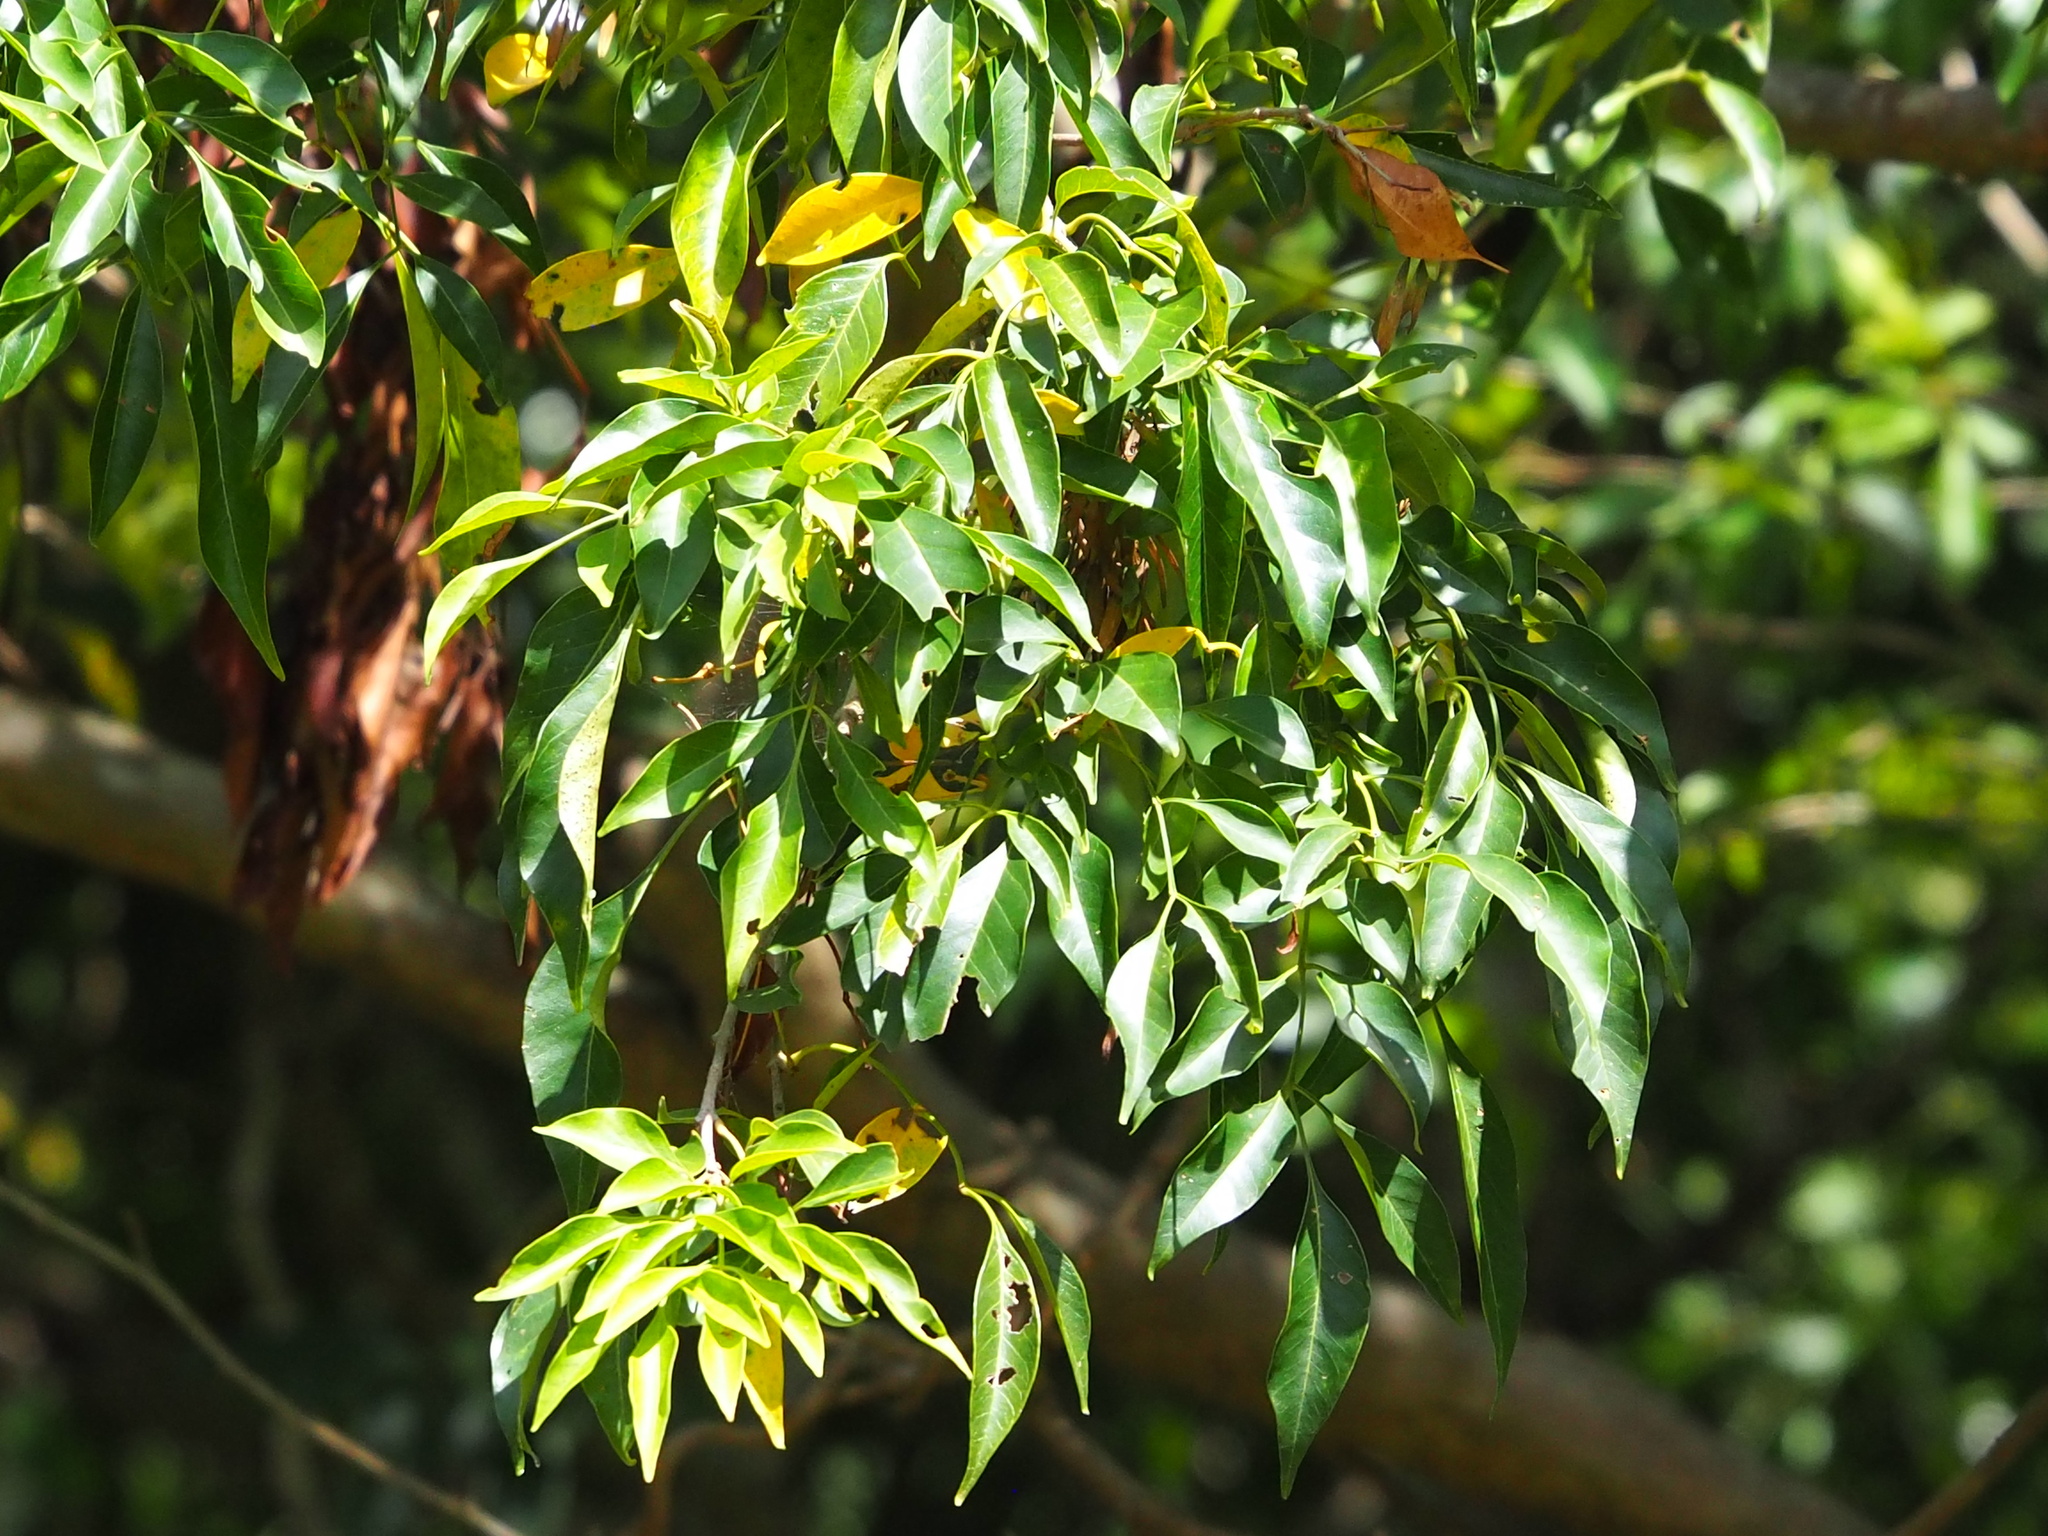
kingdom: Plantae
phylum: Tracheophyta
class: Magnoliopsida
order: Lamiales
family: Oleaceae
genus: Fraxinus
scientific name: Fraxinus griffithii
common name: Himalayan ash
